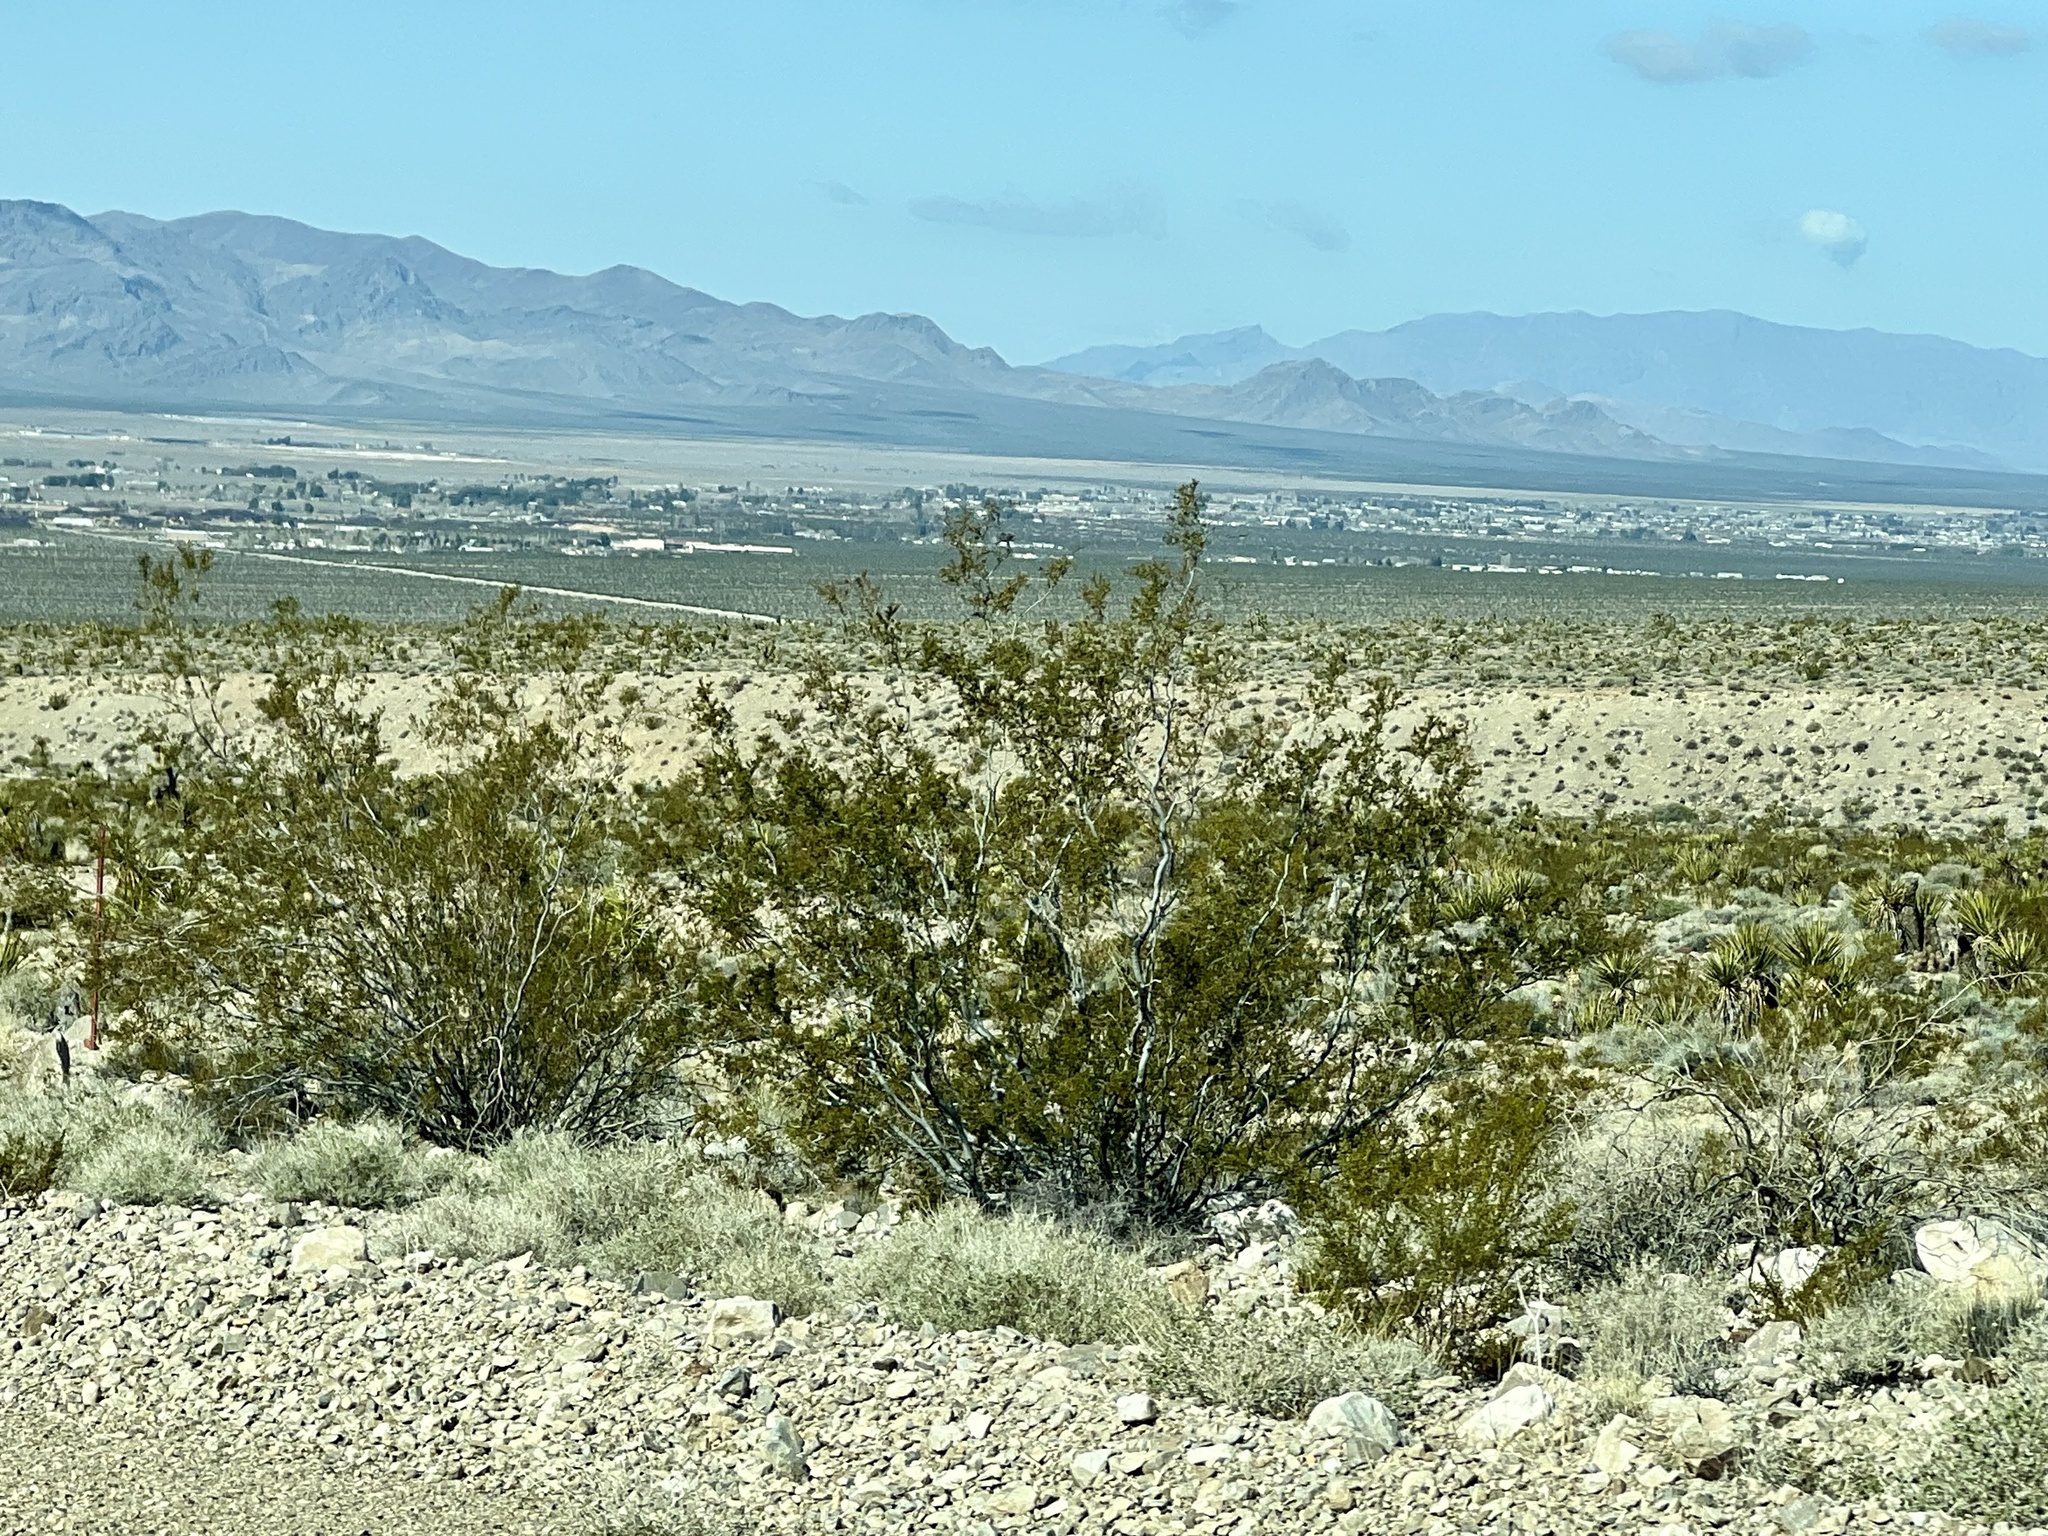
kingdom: Plantae
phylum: Tracheophyta
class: Magnoliopsida
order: Zygophyllales
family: Zygophyllaceae
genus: Larrea
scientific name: Larrea tridentata
